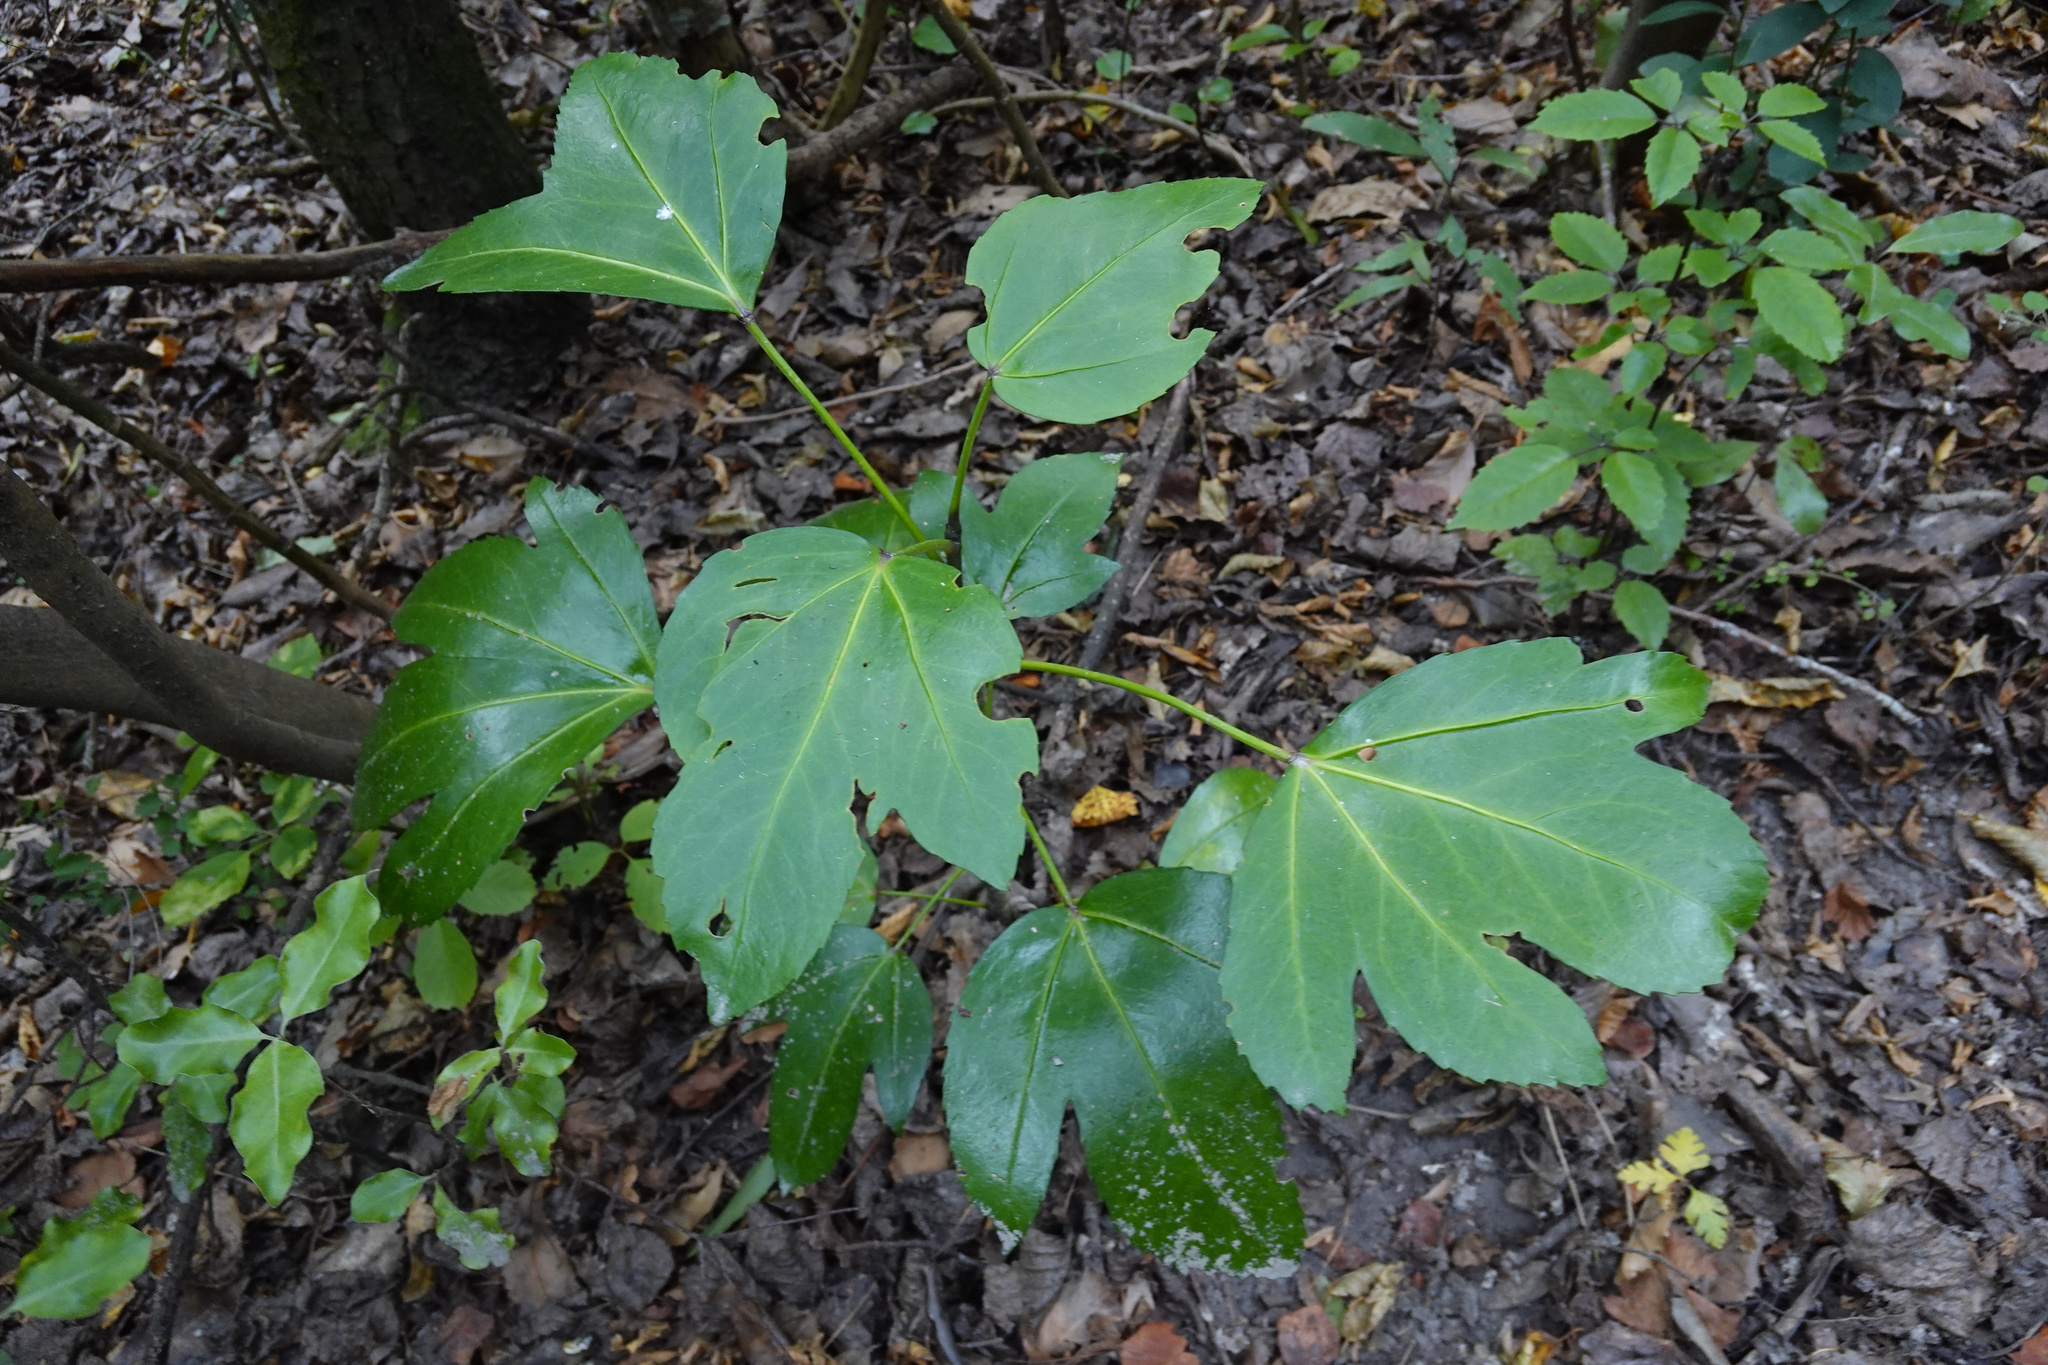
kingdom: Plantae
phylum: Tracheophyta
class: Magnoliopsida
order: Apiales
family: Araliaceae
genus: Pseudopanax
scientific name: Pseudopanax
